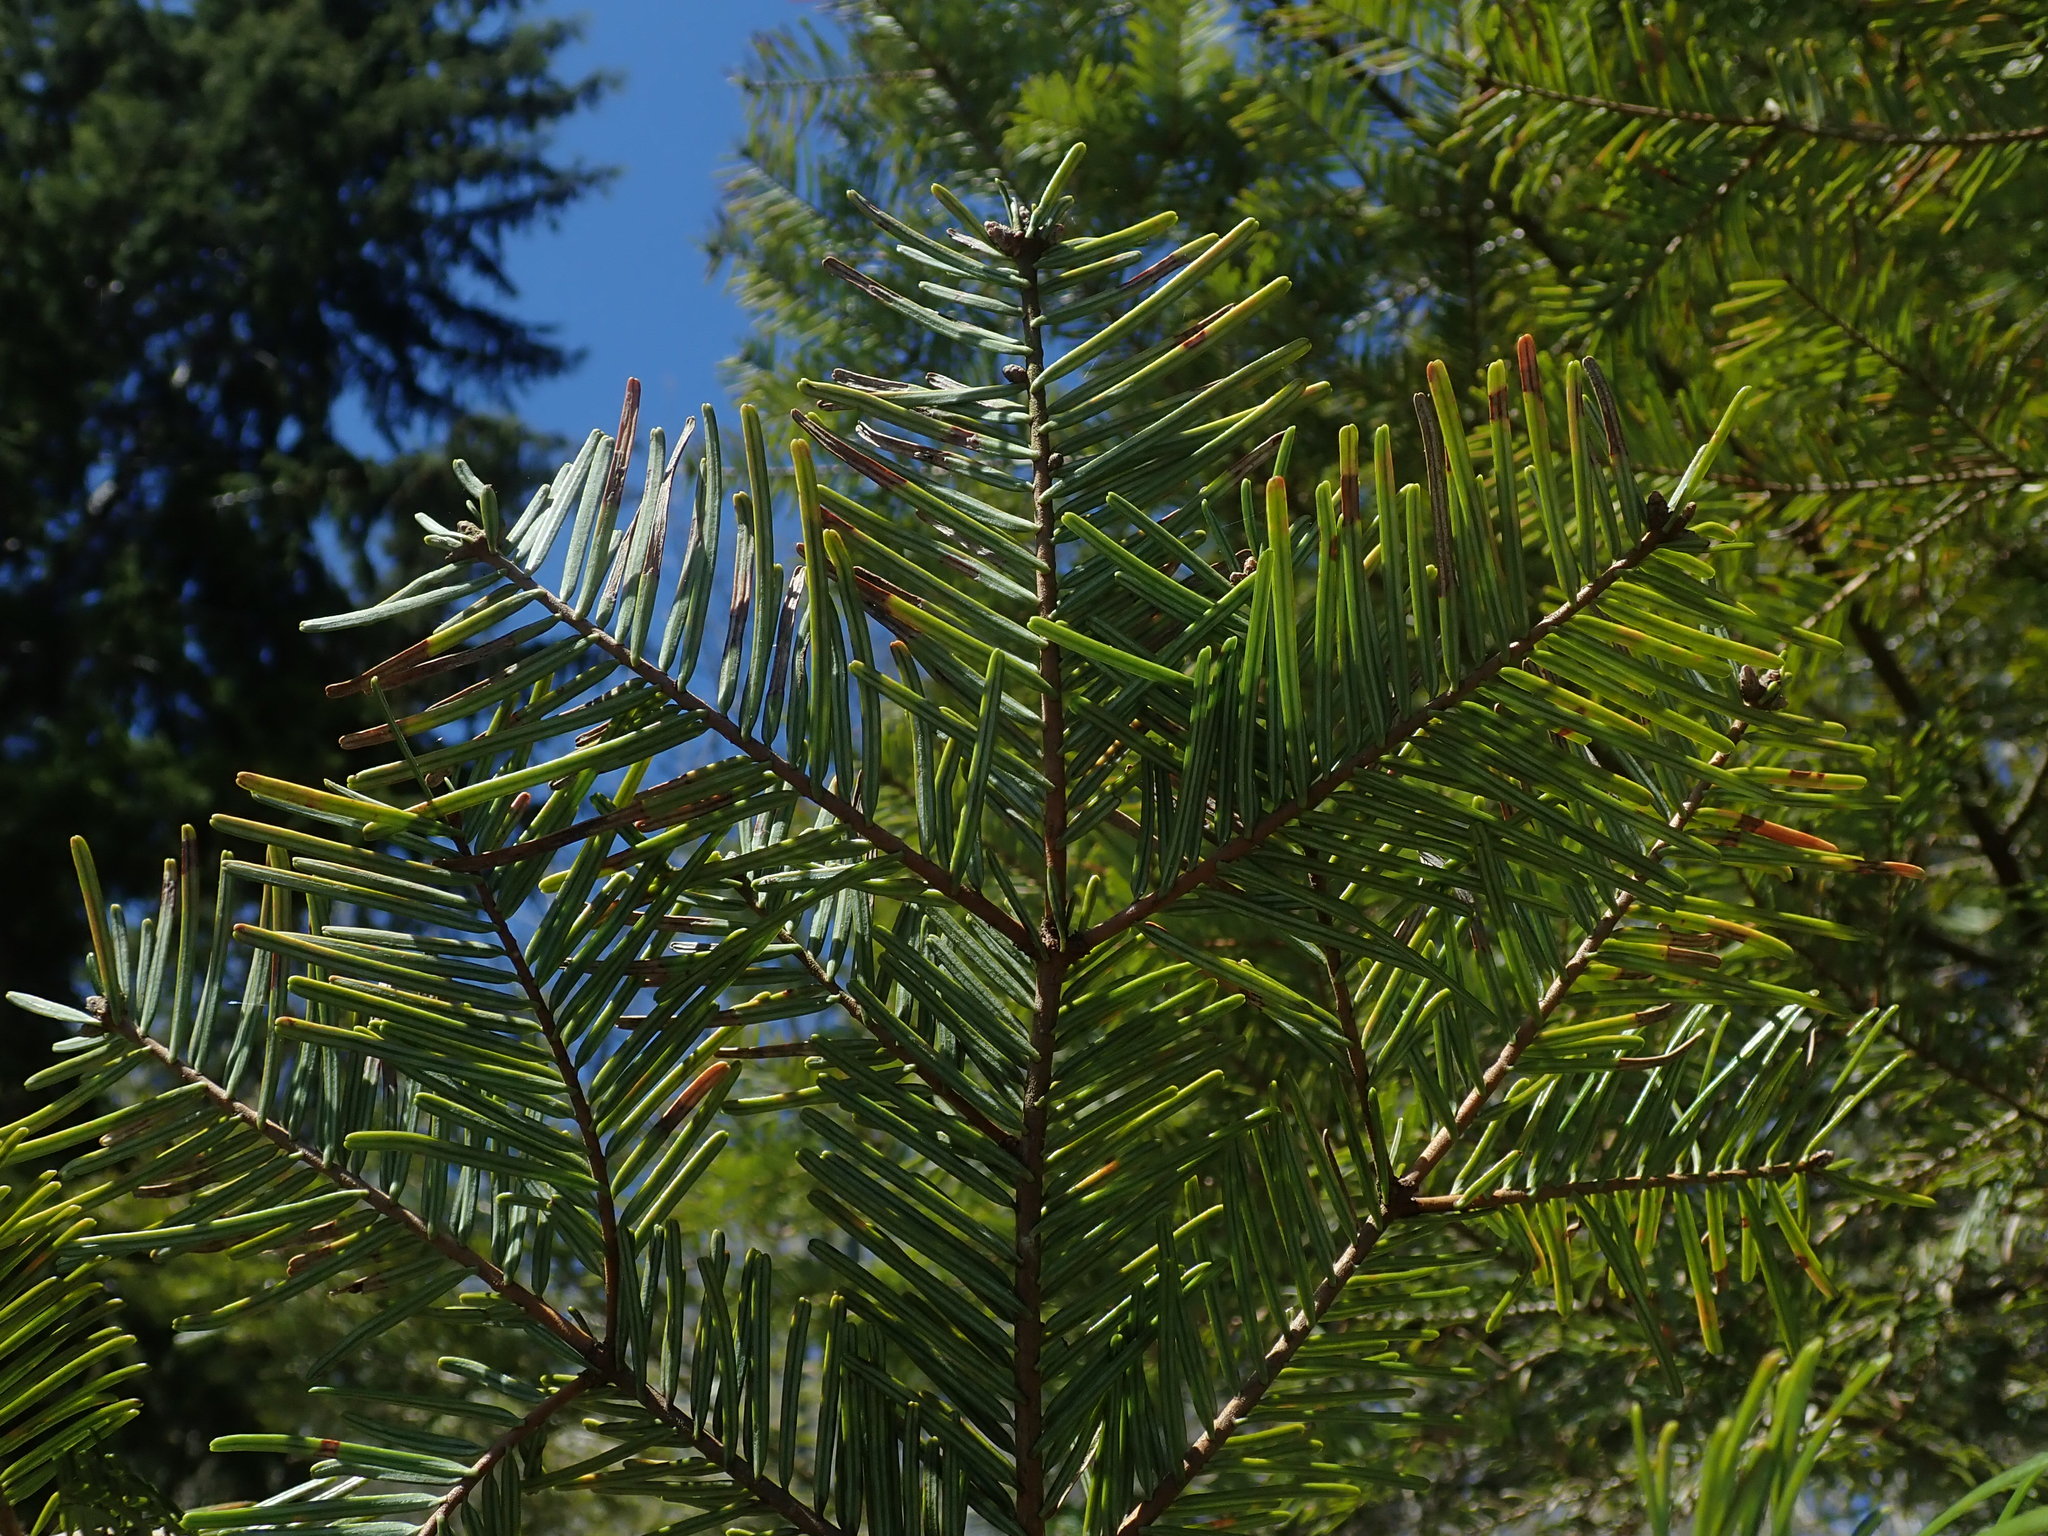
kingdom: Plantae
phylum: Tracheophyta
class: Pinopsida
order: Pinales
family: Pinaceae
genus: Abies
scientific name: Abies grandis
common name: Giant fir
